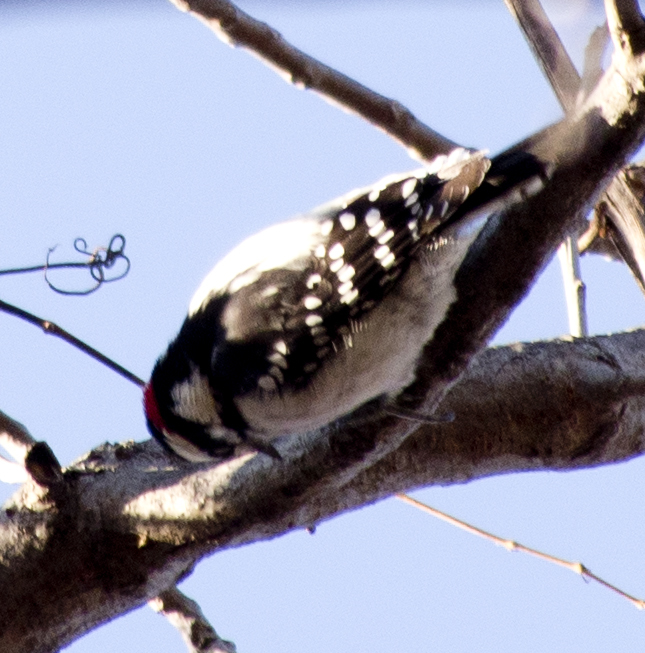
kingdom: Animalia
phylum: Chordata
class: Aves
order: Piciformes
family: Picidae
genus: Dryobates
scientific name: Dryobates pubescens
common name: Downy woodpecker
